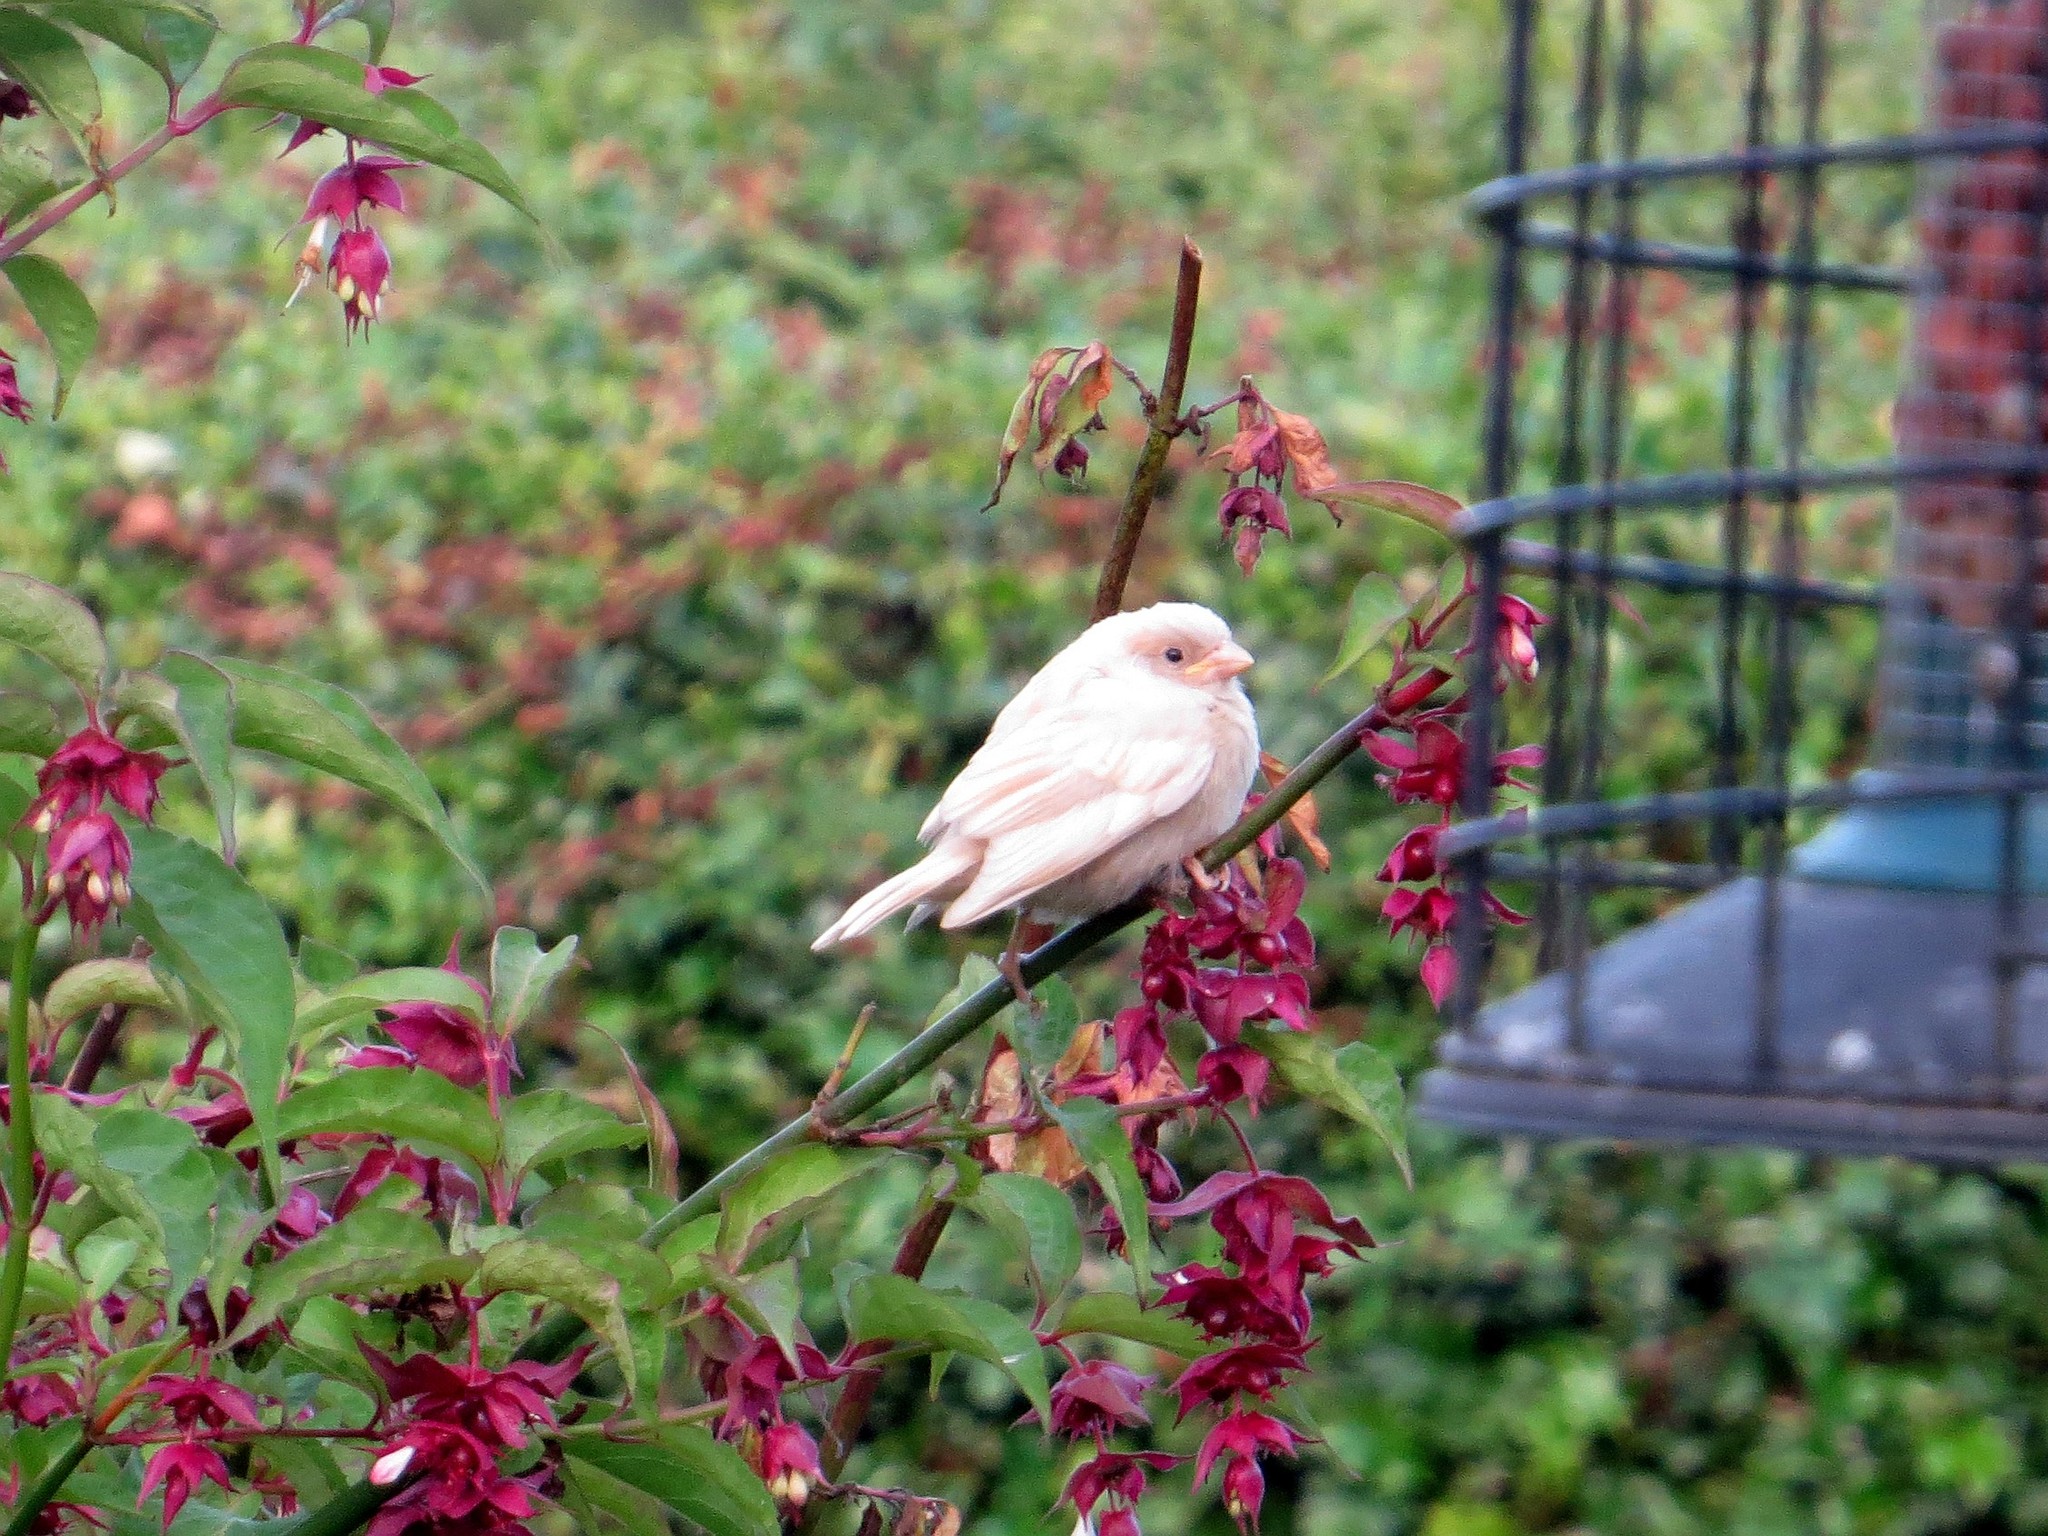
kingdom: Animalia
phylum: Chordata
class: Aves
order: Passeriformes
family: Passeridae
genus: Passer
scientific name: Passer domesticus
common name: House sparrow
